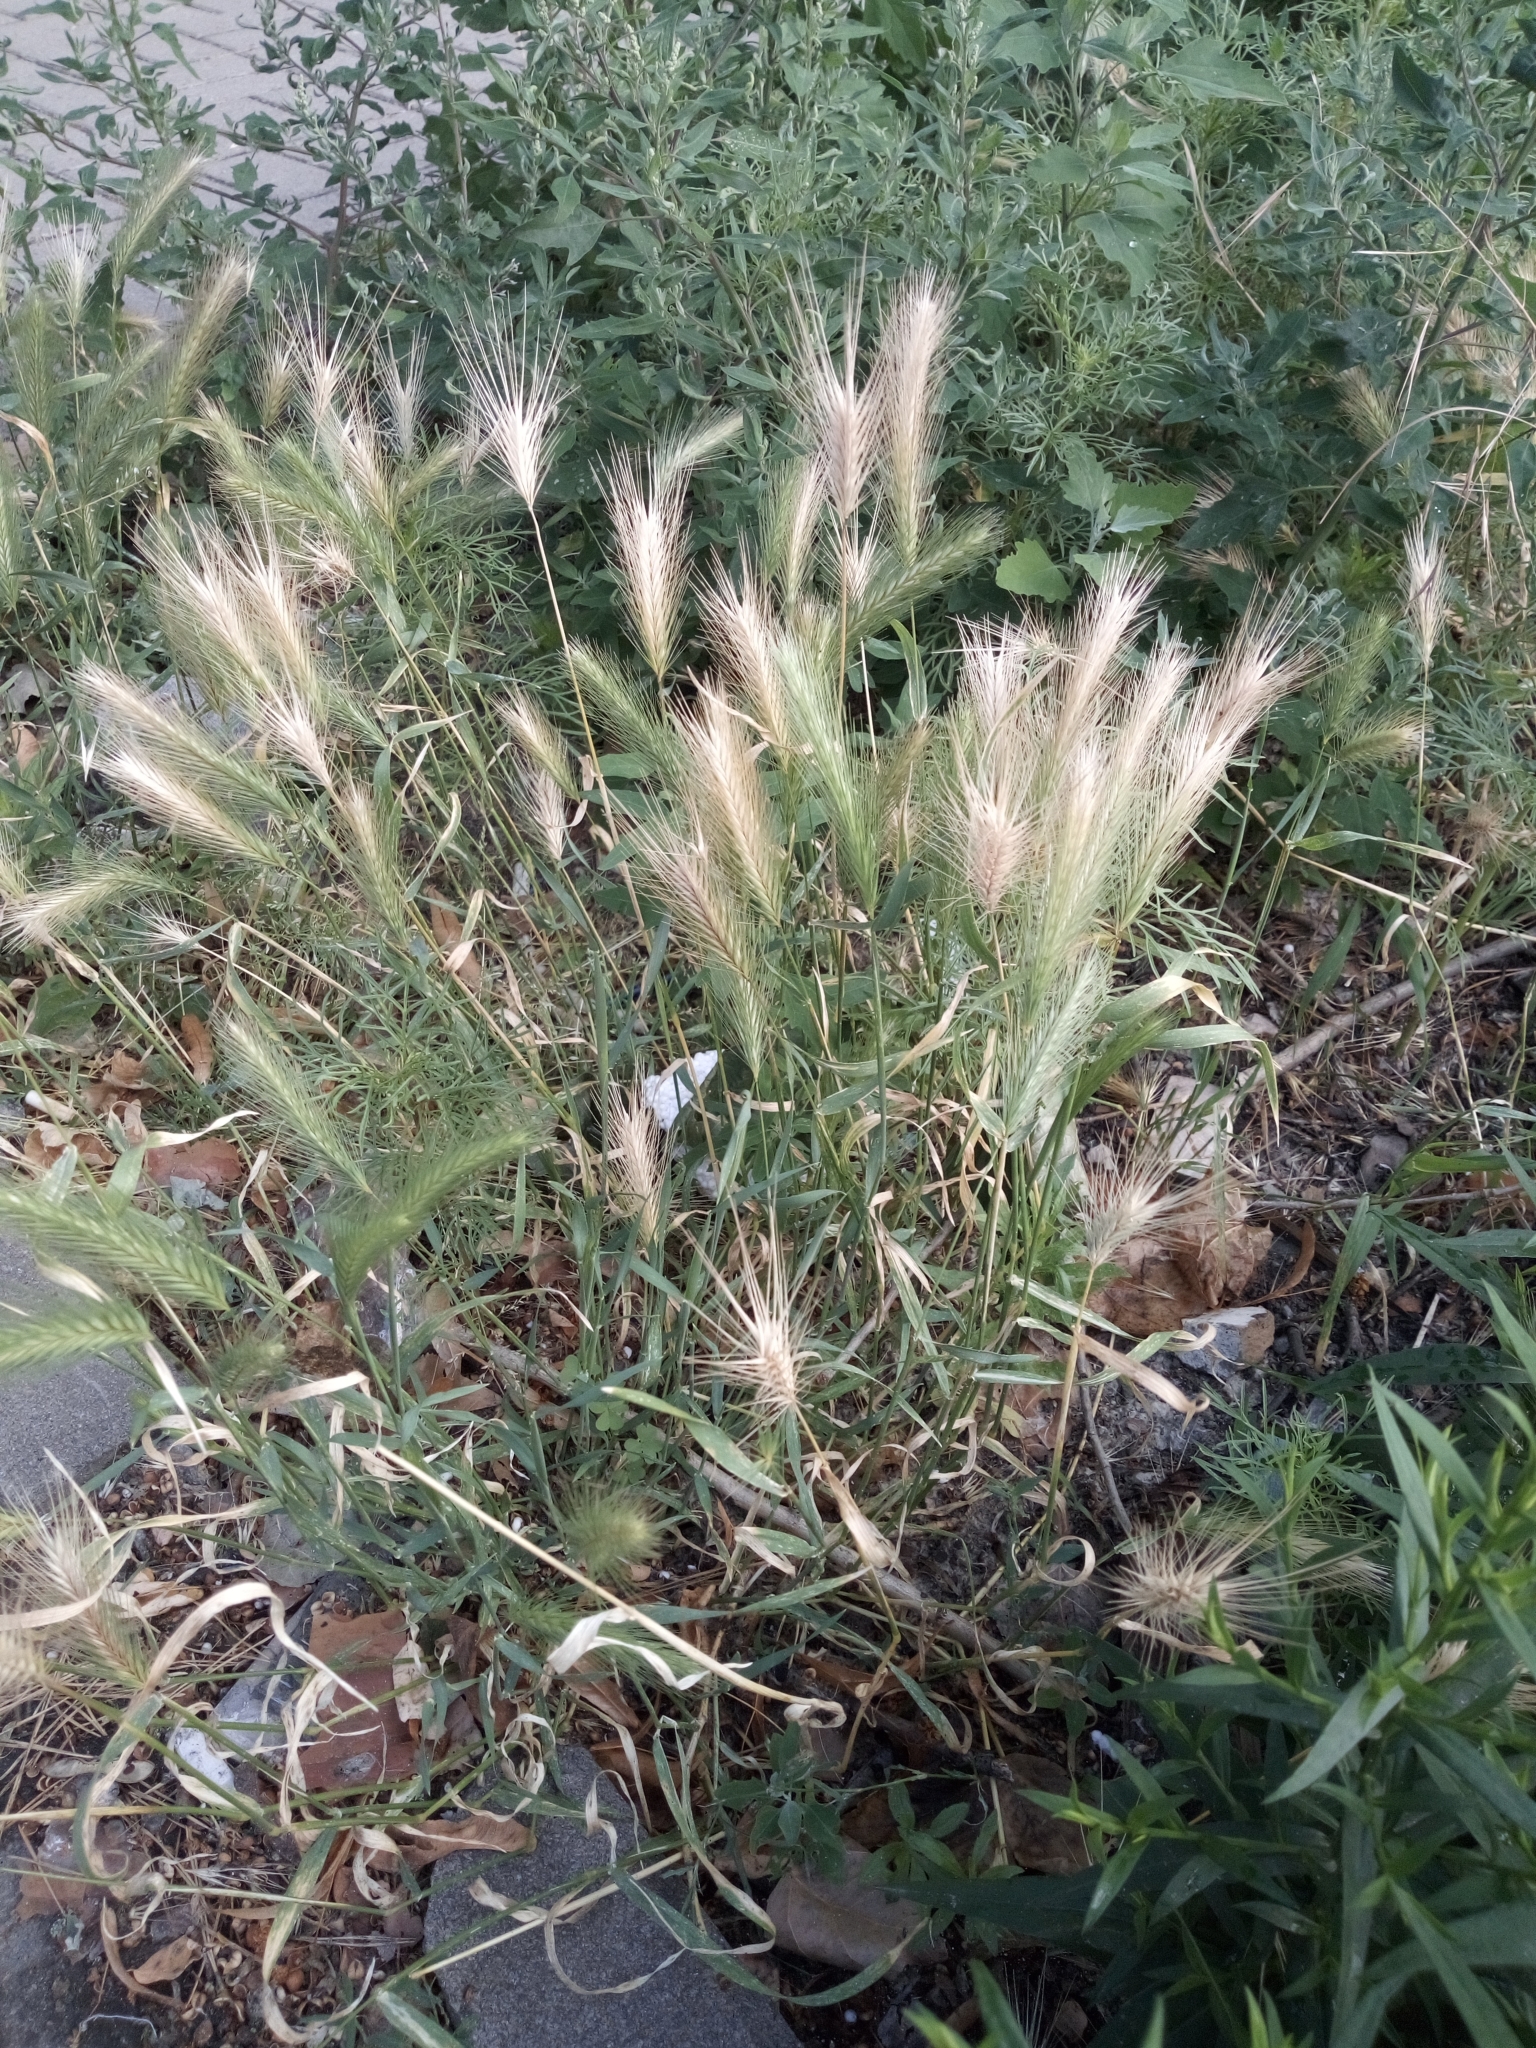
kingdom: Plantae
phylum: Tracheophyta
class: Liliopsida
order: Poales
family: Poaceae
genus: Hordeum
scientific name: Hordeum murinum
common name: Wall barley
